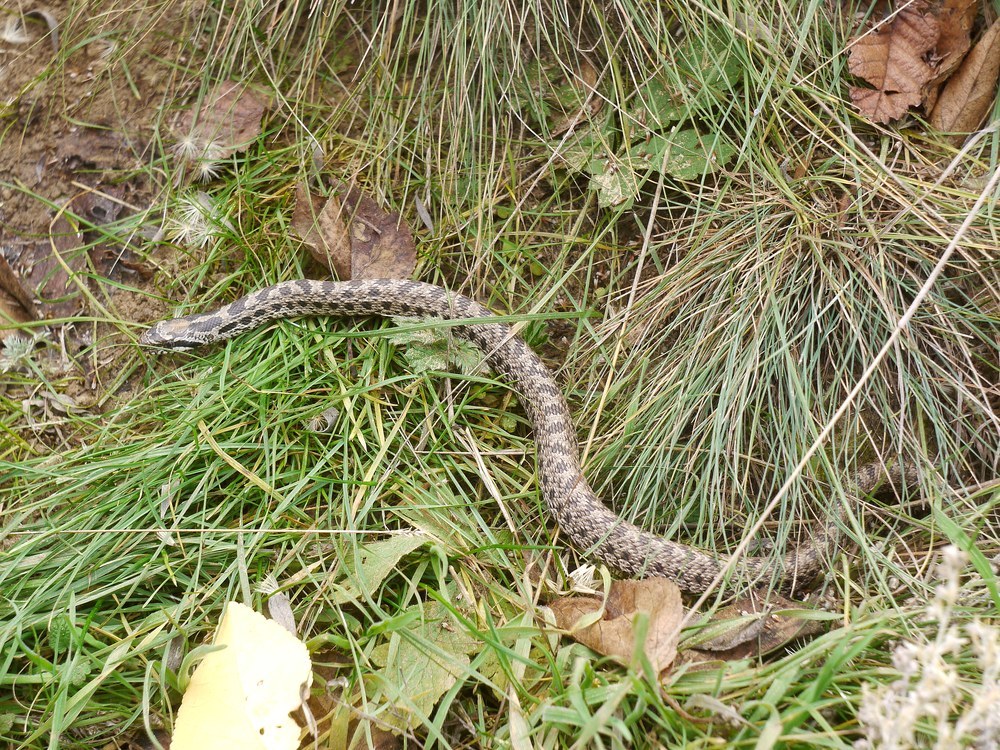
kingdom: Animalia
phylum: Chordata
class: Squamata
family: Colubridae
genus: Elaphe
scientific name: Elaphe sauromates
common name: Eastern four-lined ratsnake
